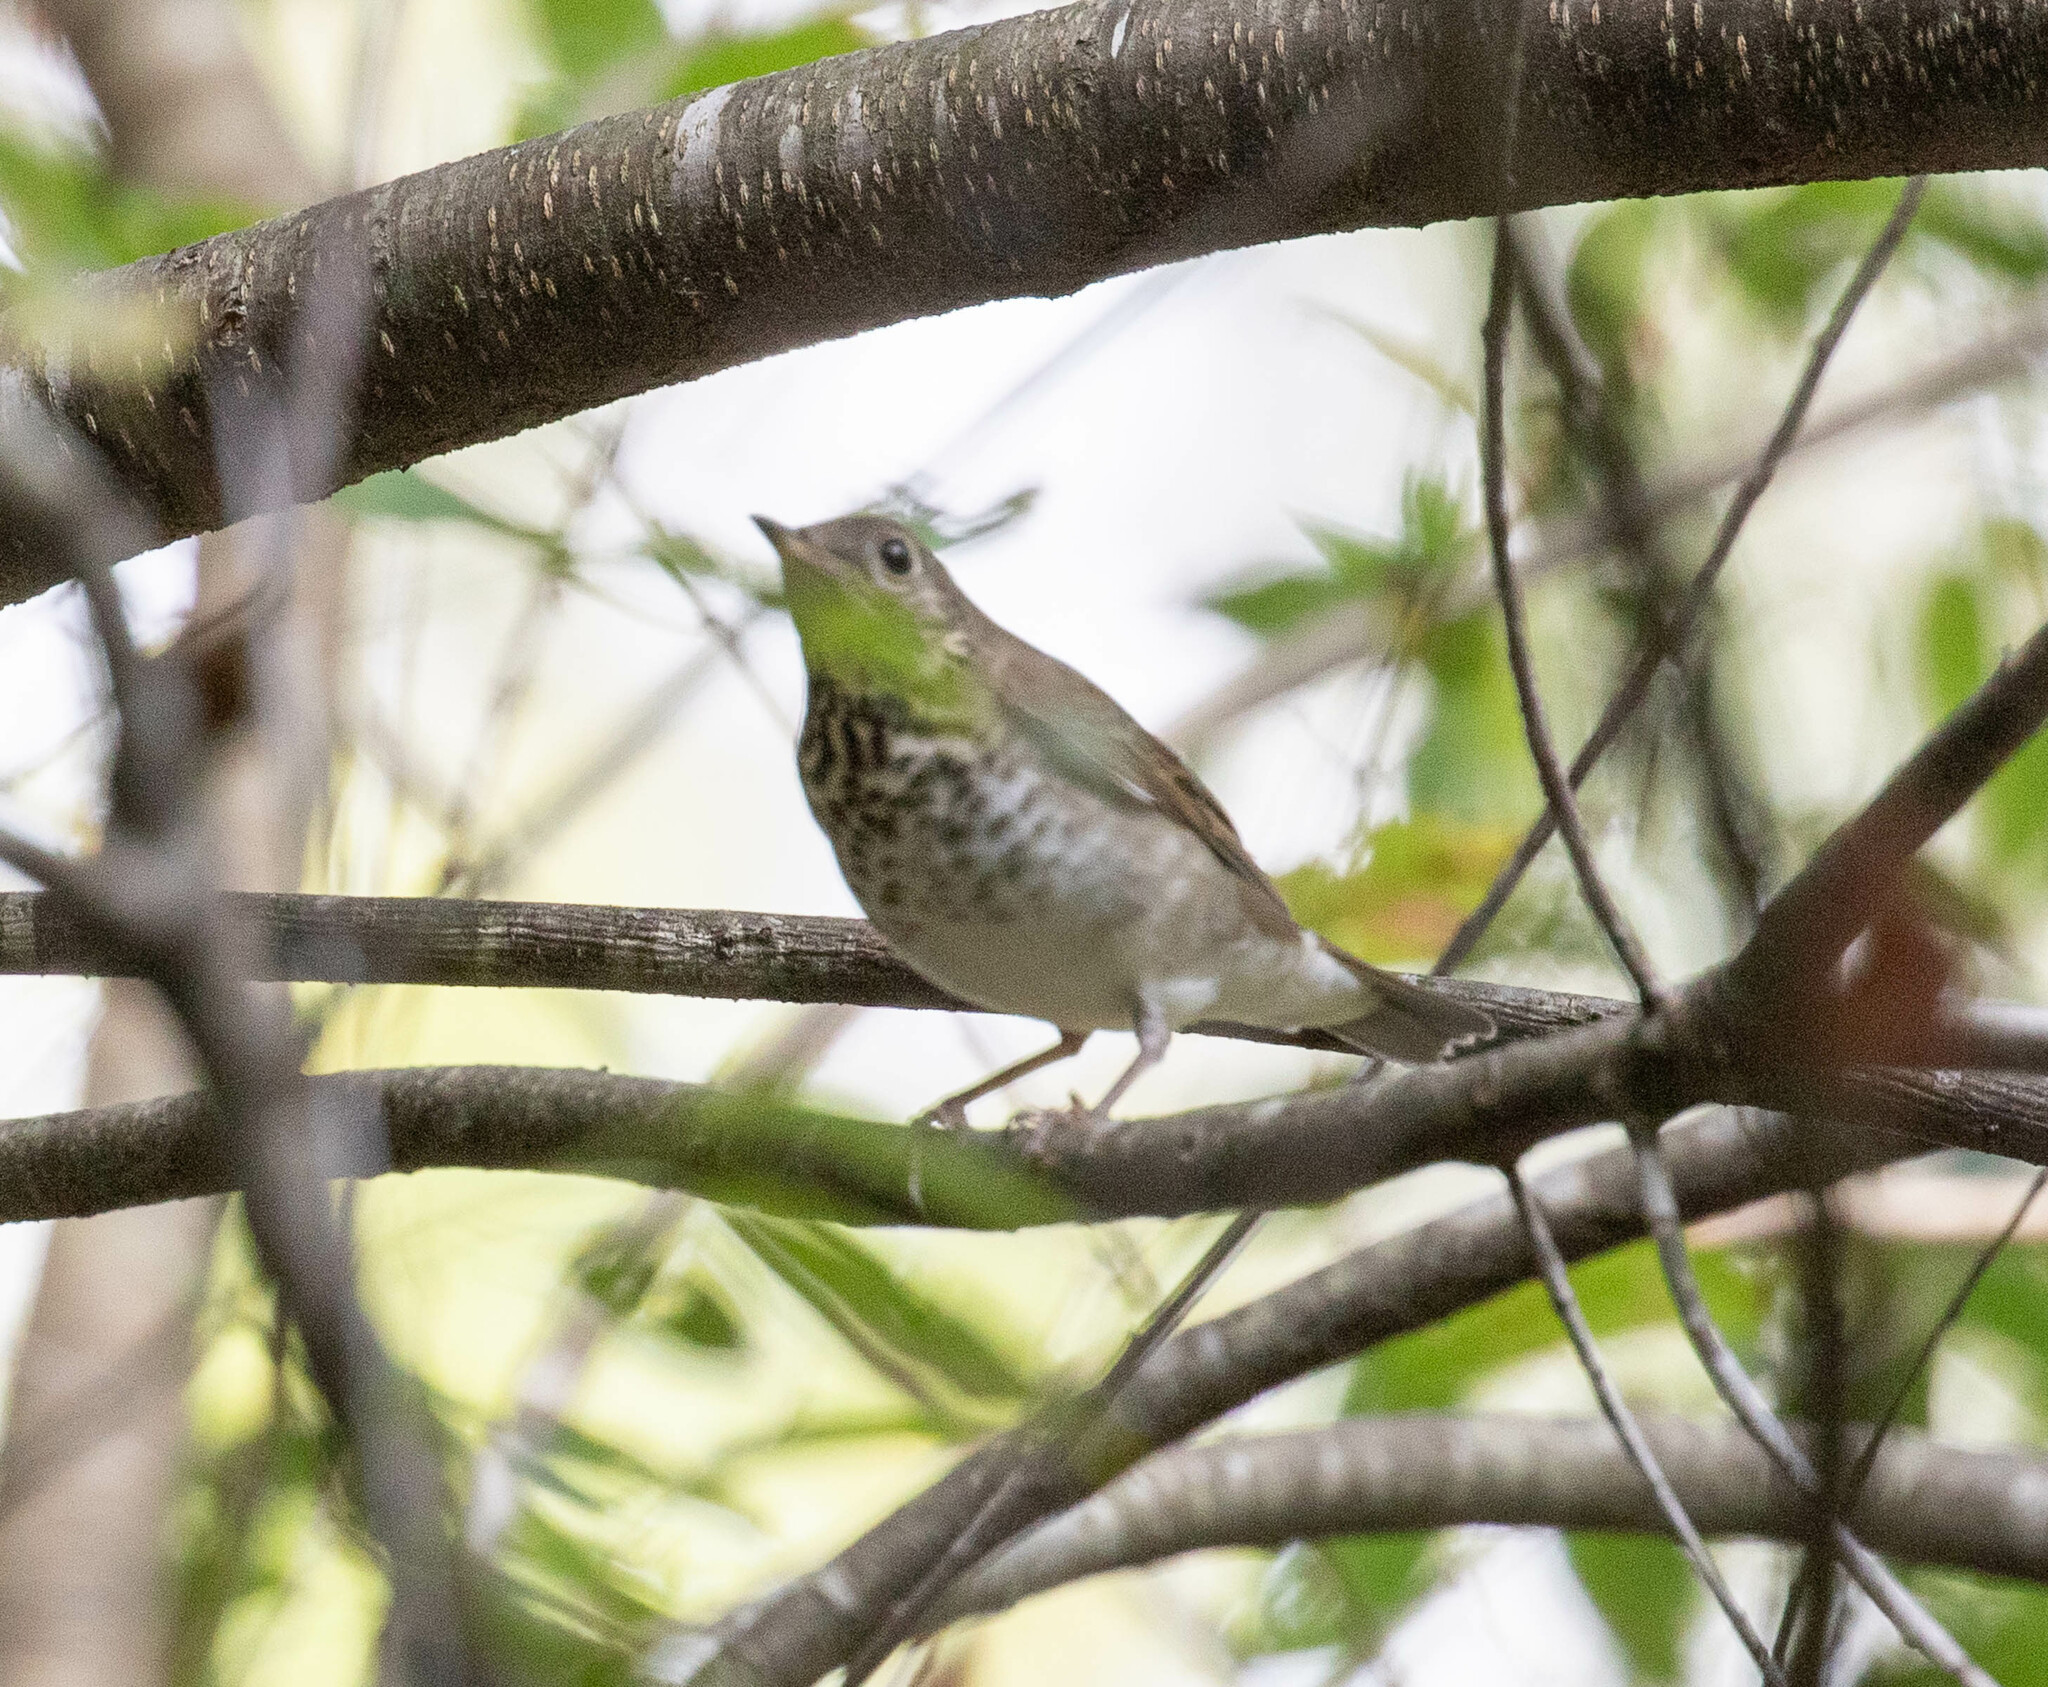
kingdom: Animalia
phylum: Chordata
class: Aves
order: Passeriformes
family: Turdidae
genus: Catharus
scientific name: Catharus ustulatus
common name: Swainson's thrush
